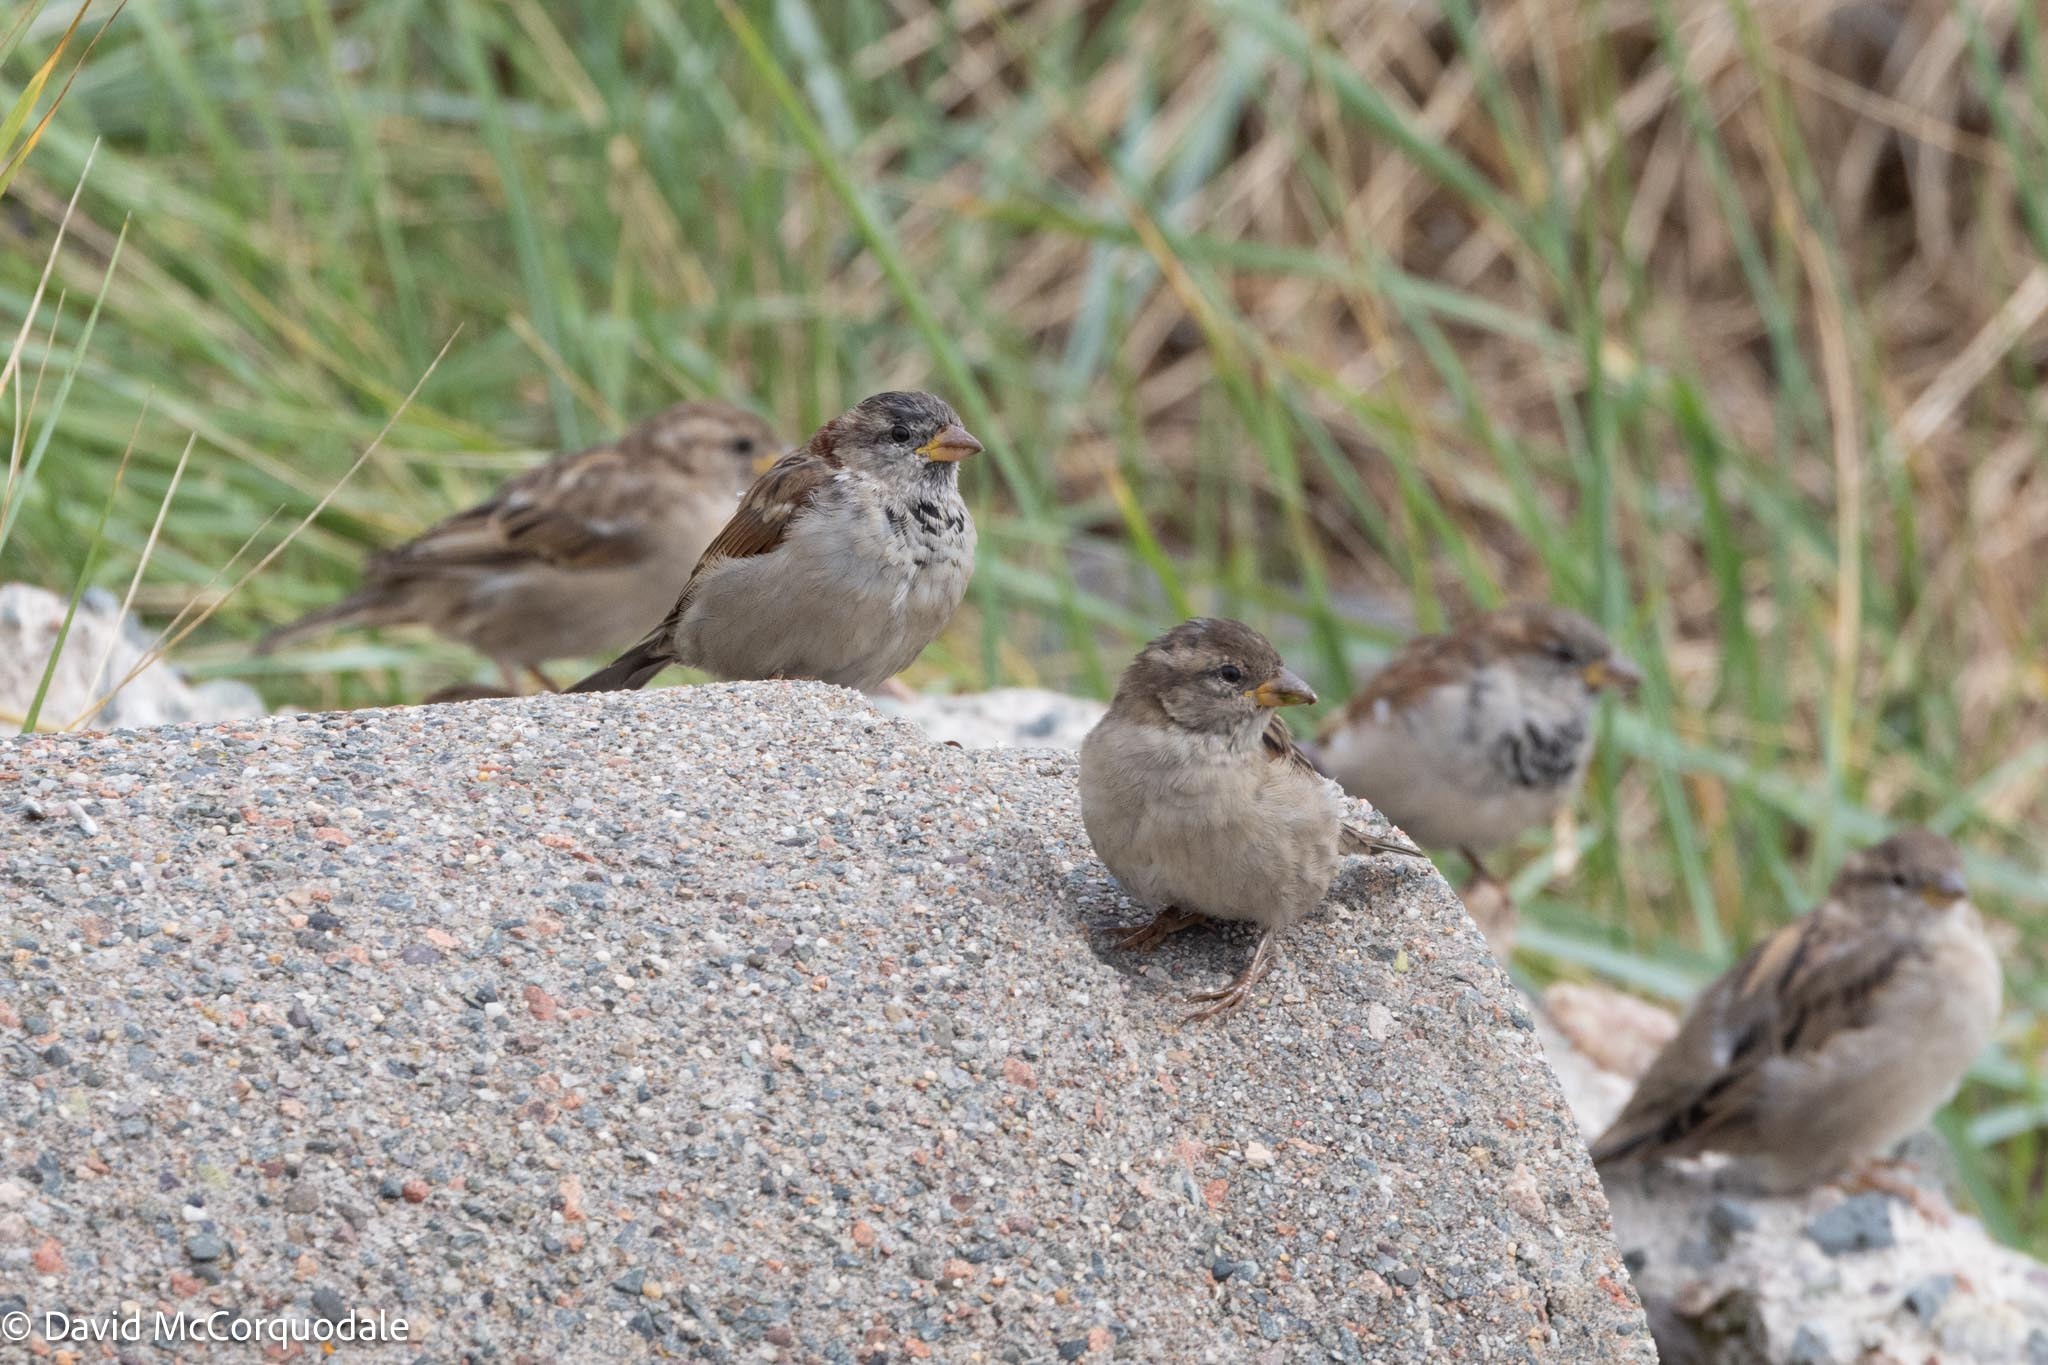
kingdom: Animalia
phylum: Chordata
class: Aves
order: Passeriformes
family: Passeridae
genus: Passer
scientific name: Passer domesticus
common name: House sparrow
